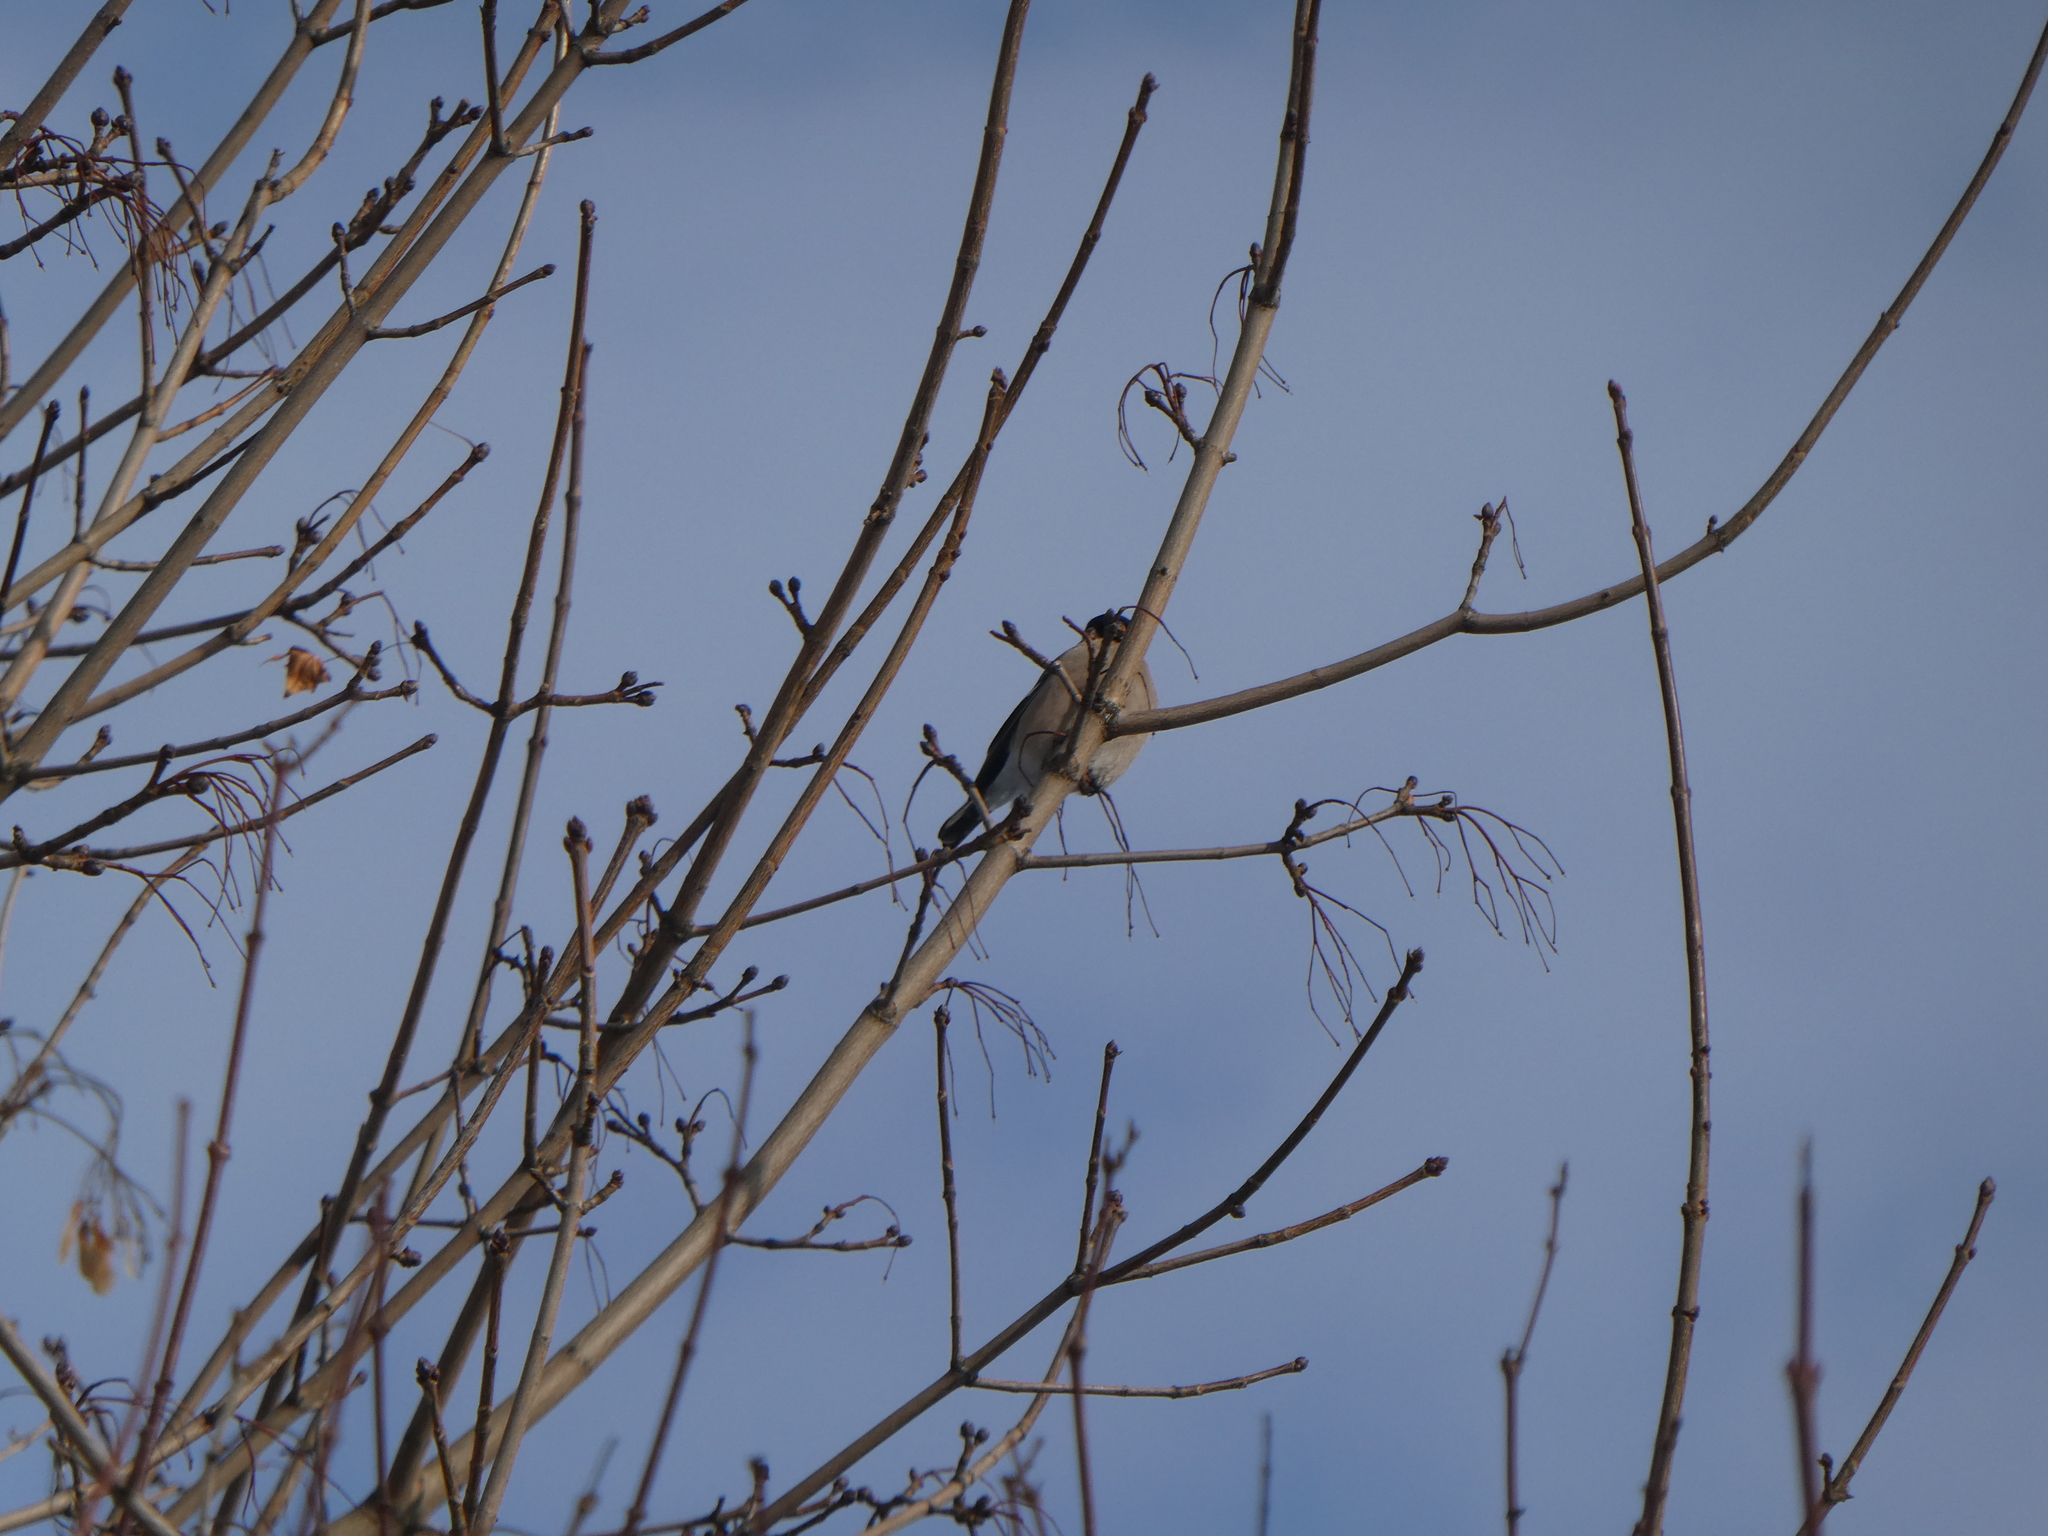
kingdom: Animalia
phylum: Chordata
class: Aves
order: Passeriformes
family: Fringillidae
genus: Pyrrhula
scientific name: Pyrrhula pyrrhula
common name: Eurasian bullfinch
